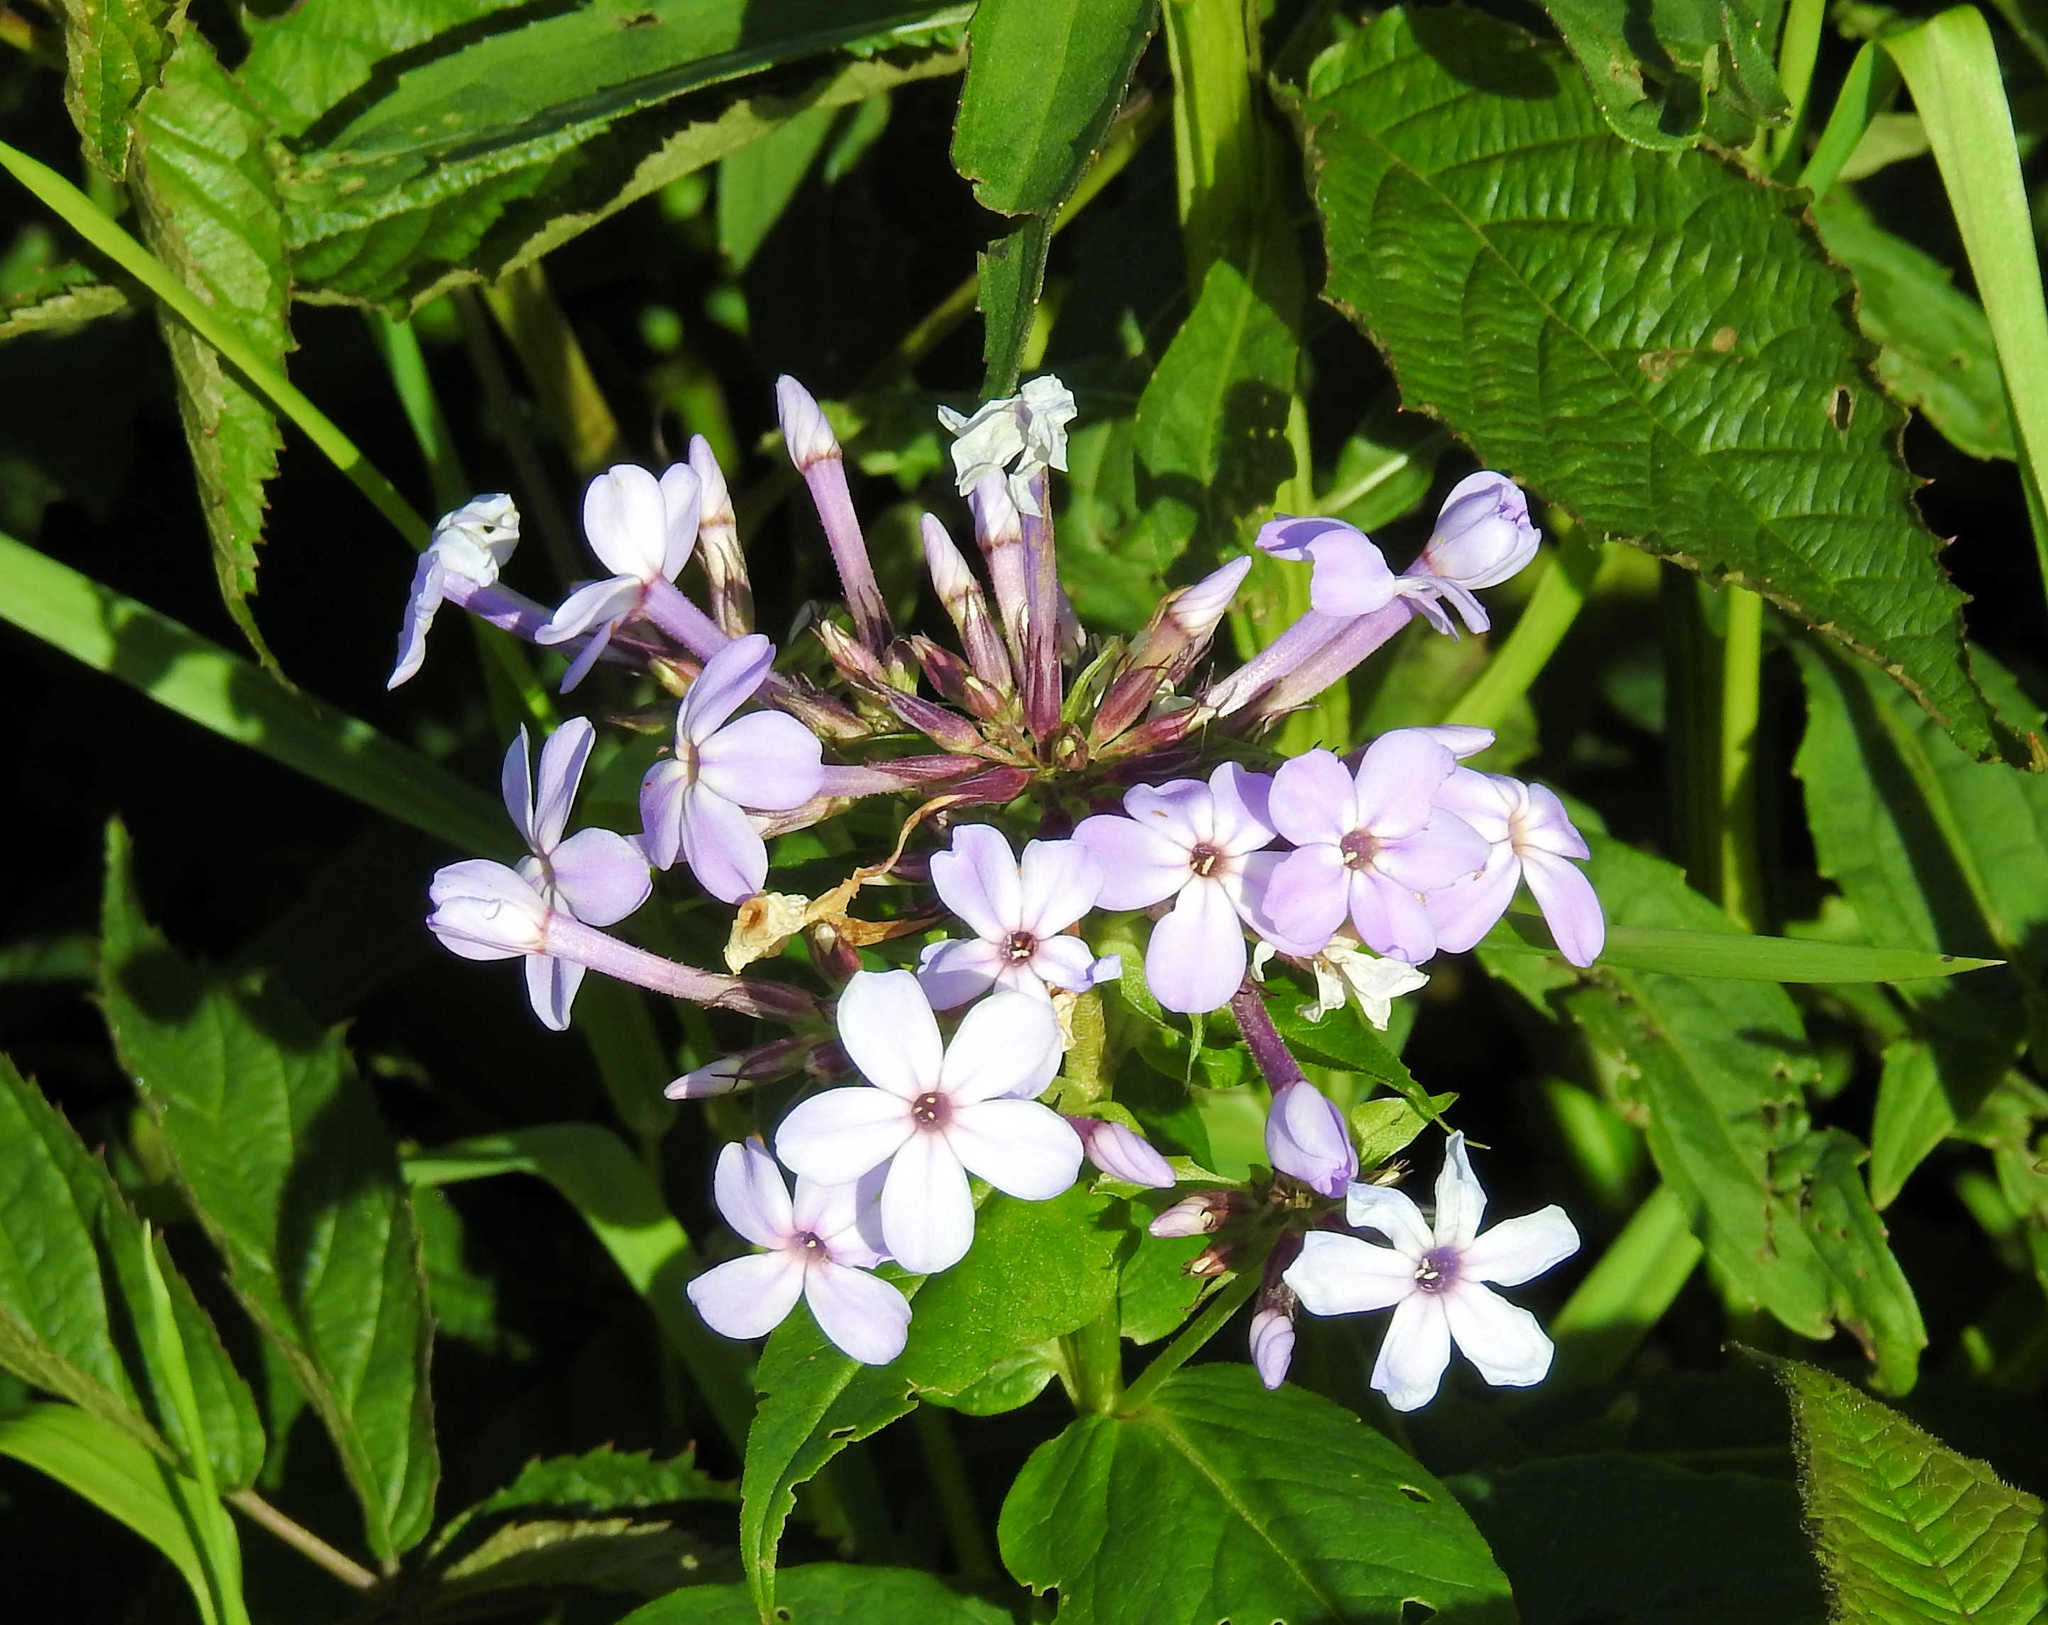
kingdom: Plantae
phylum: Tracheophyta
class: Magnoliopsida
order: Ericales
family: Polemoniaceae
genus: Phlox
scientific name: Phlox paniculata
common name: Fall phlox
